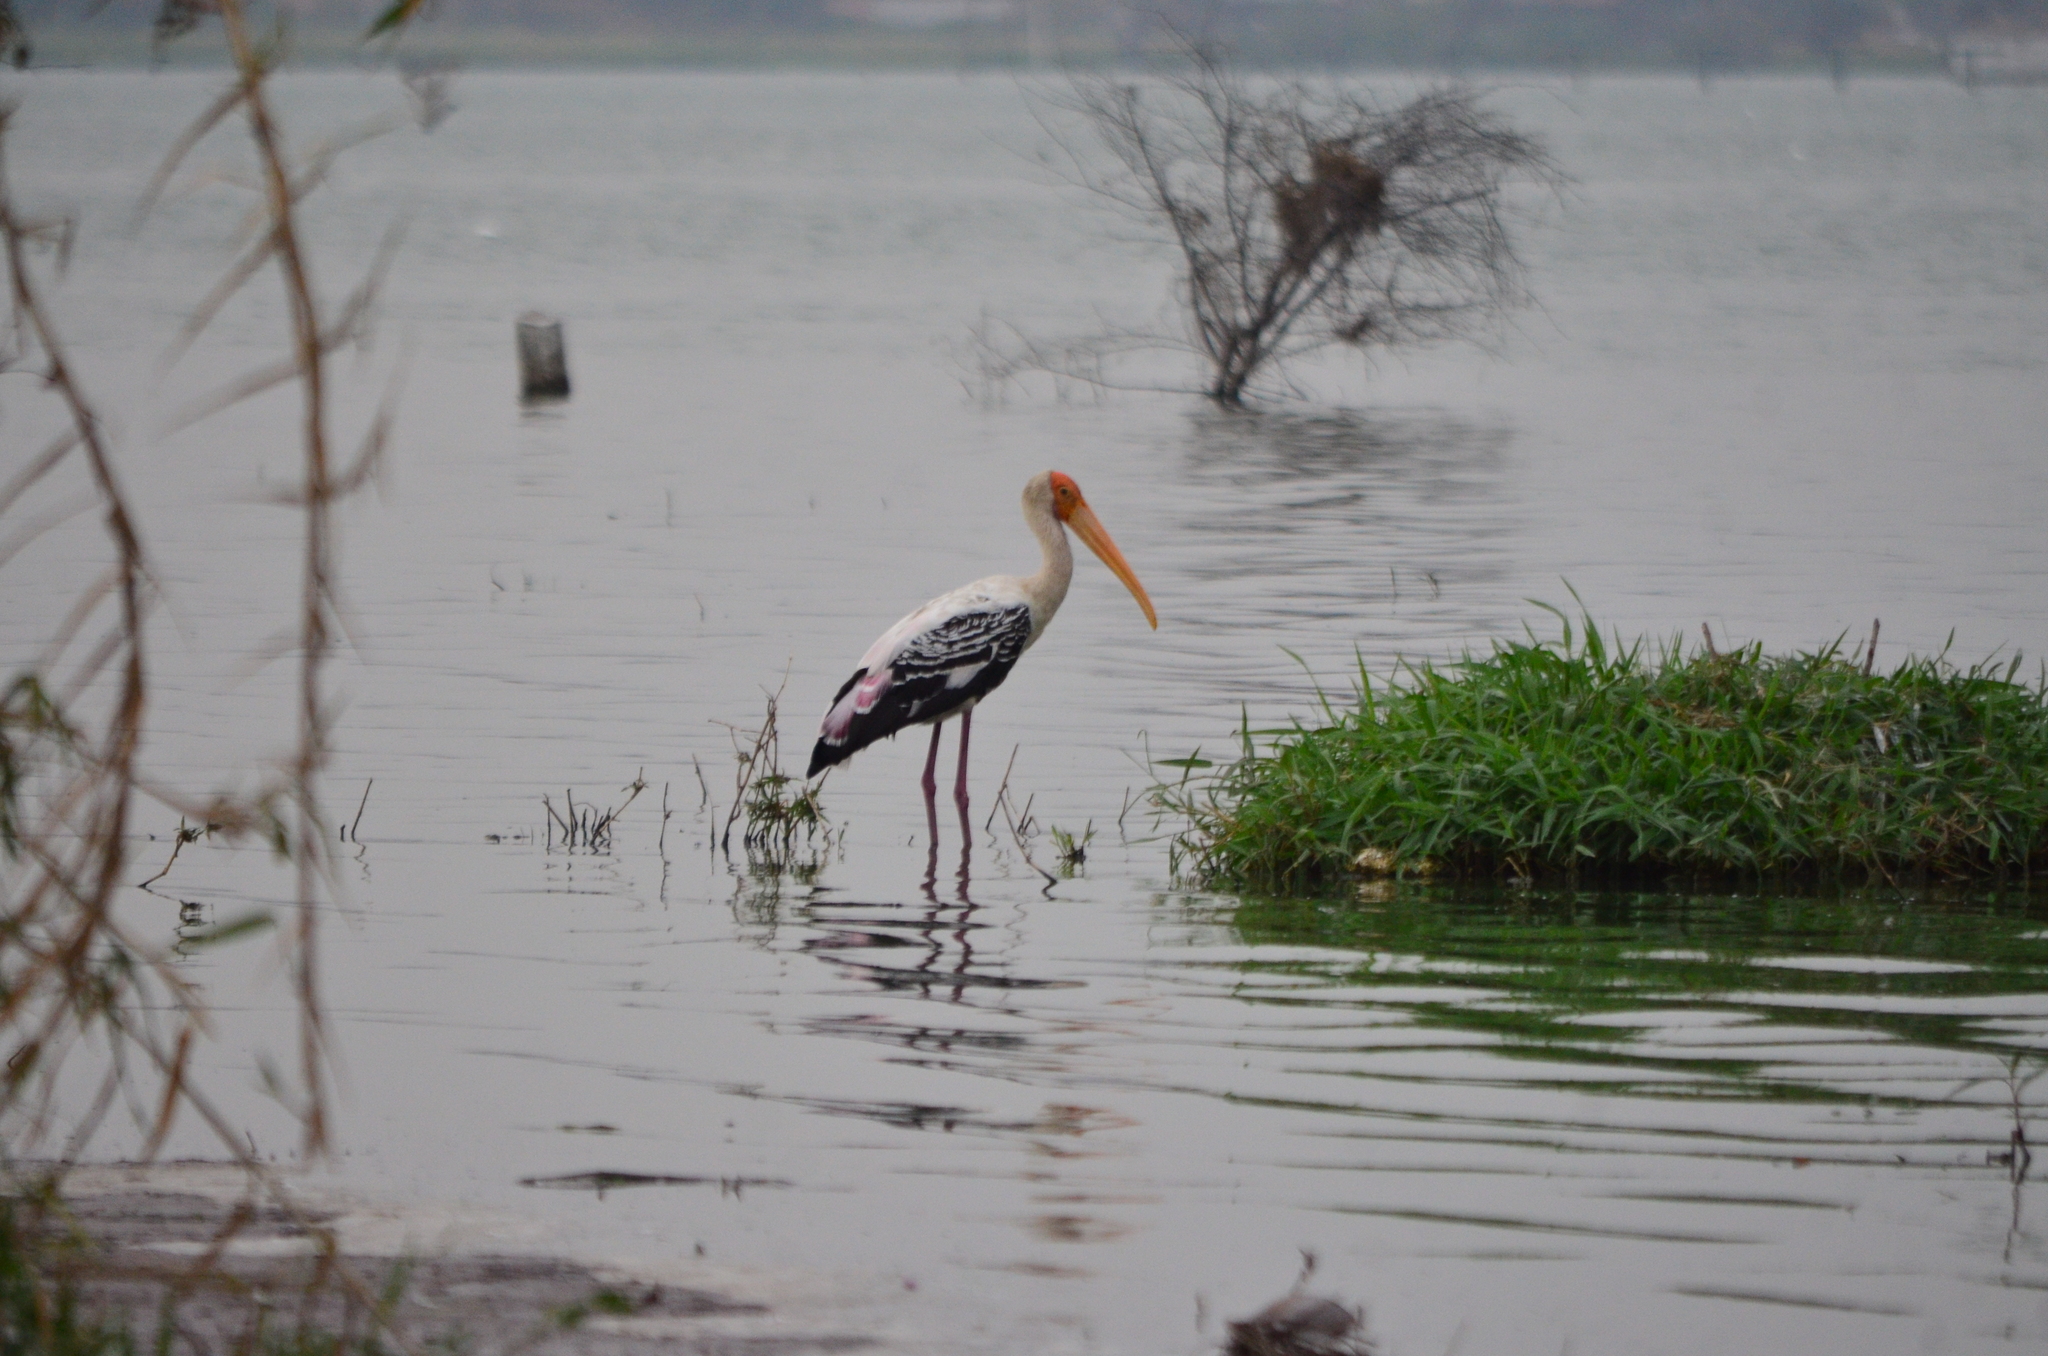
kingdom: Animalia
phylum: Chordata
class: Aves
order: Ciconiiformes
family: Ciconiidae
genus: Mycteria
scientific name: Mycteria leucocephala
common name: Painted stork
